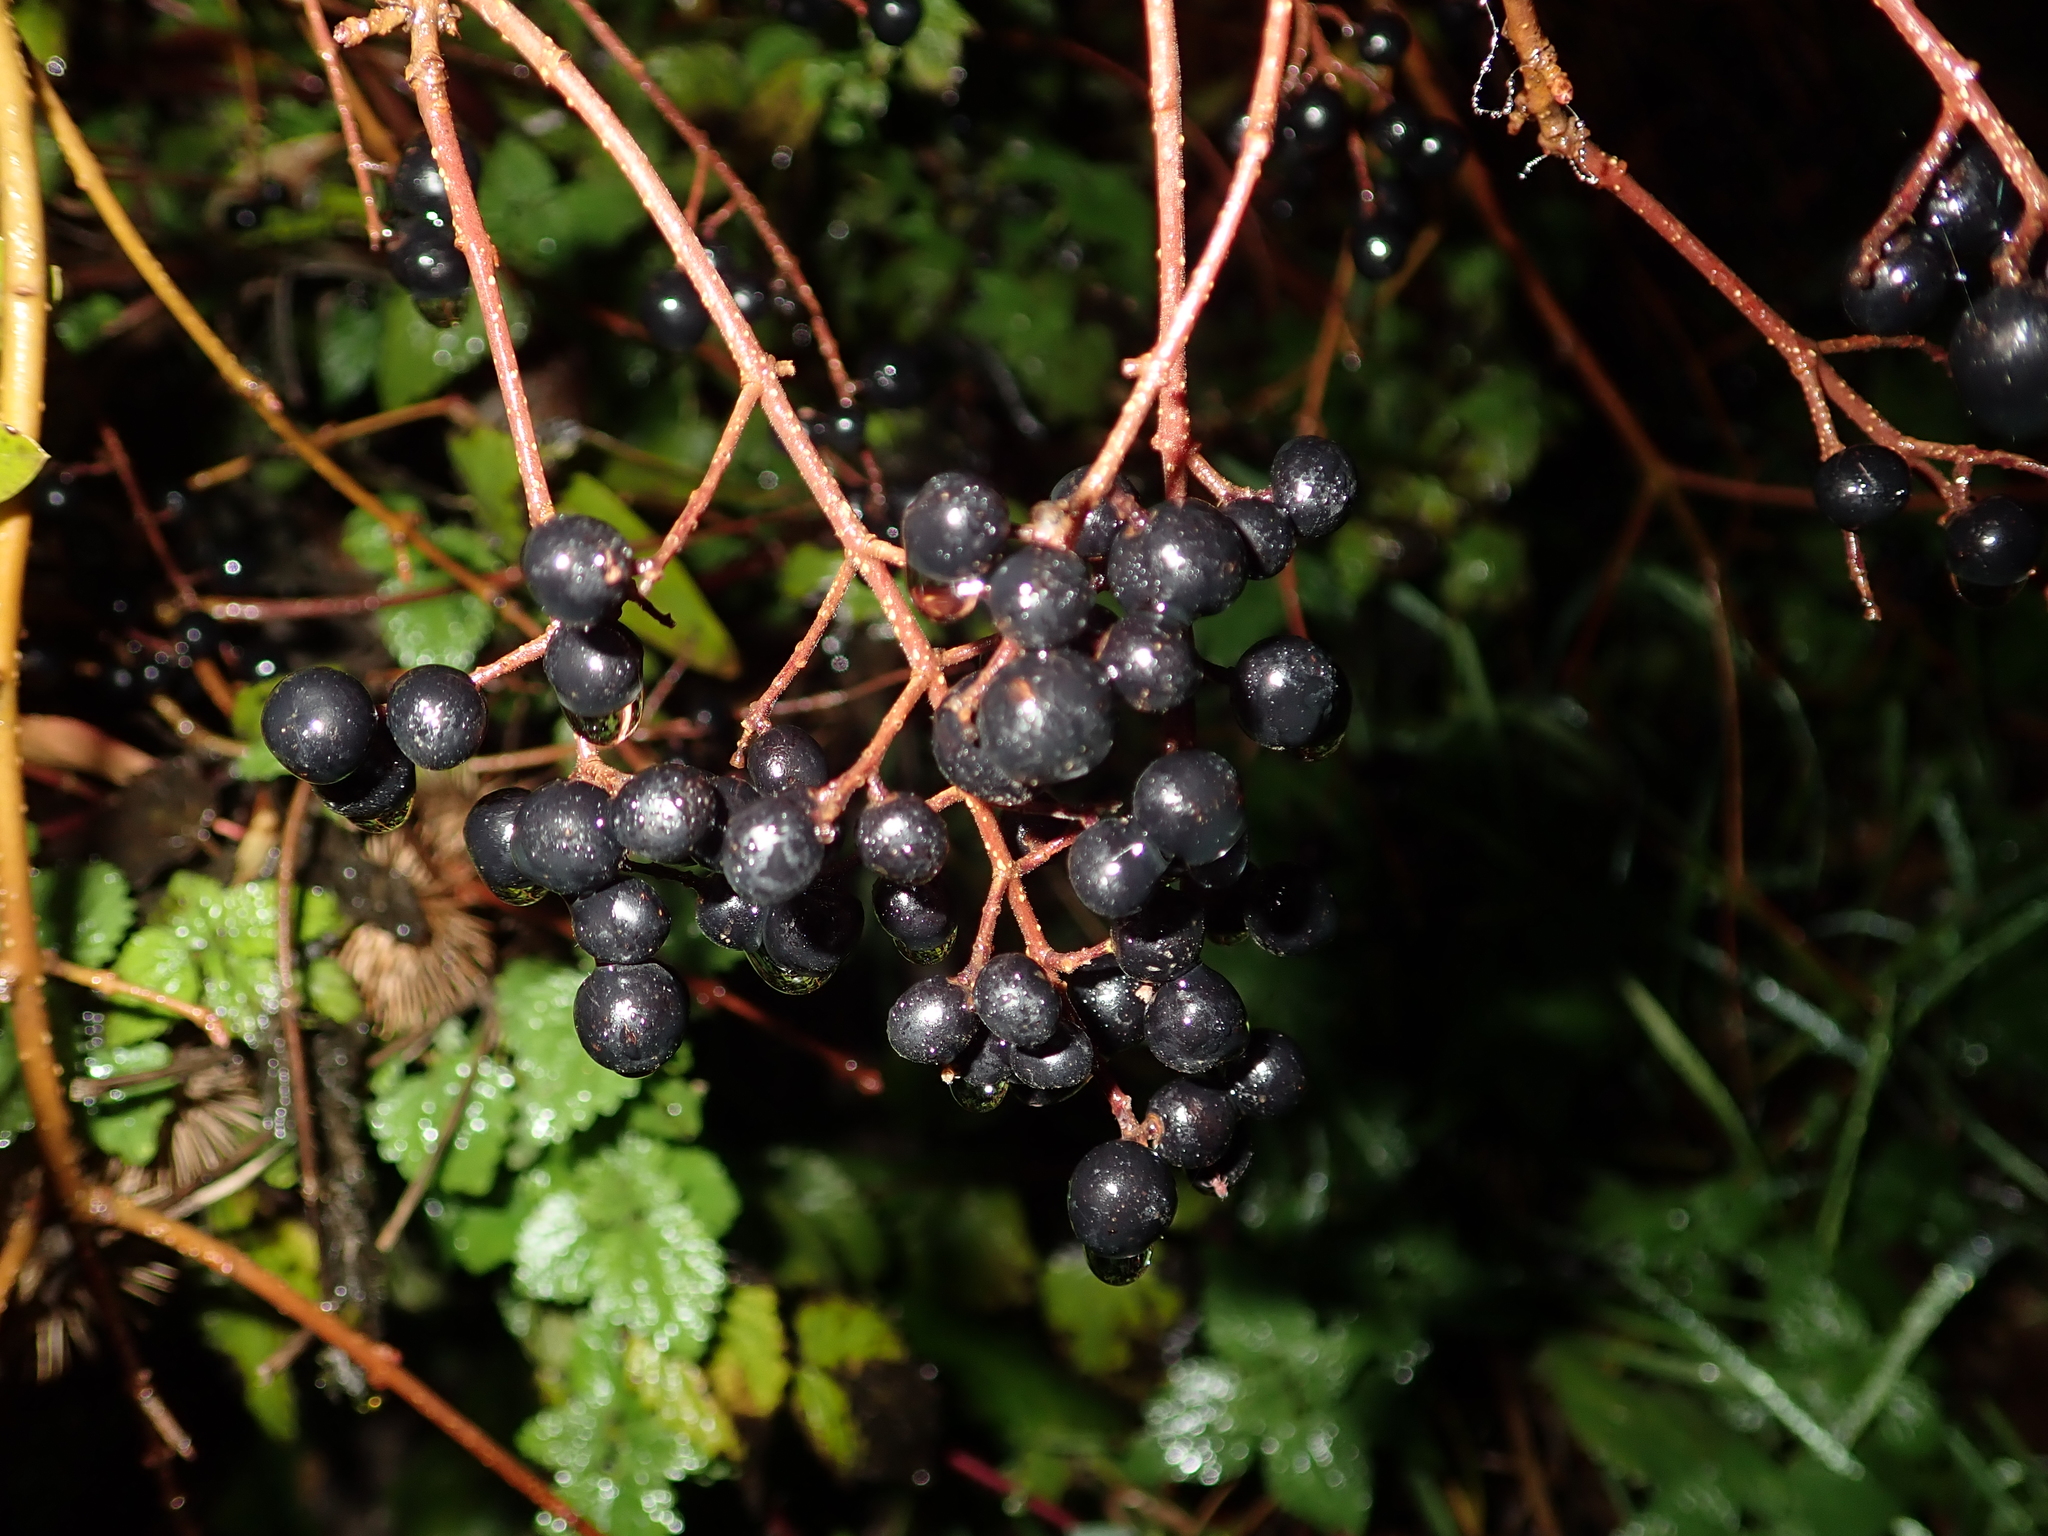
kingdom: Plantae
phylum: Tracheophyta
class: Magnoliopsida
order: Lamiales
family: Oleaceae
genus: Ligustrum
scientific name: Ligustrum vulgare
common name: Wild privet
